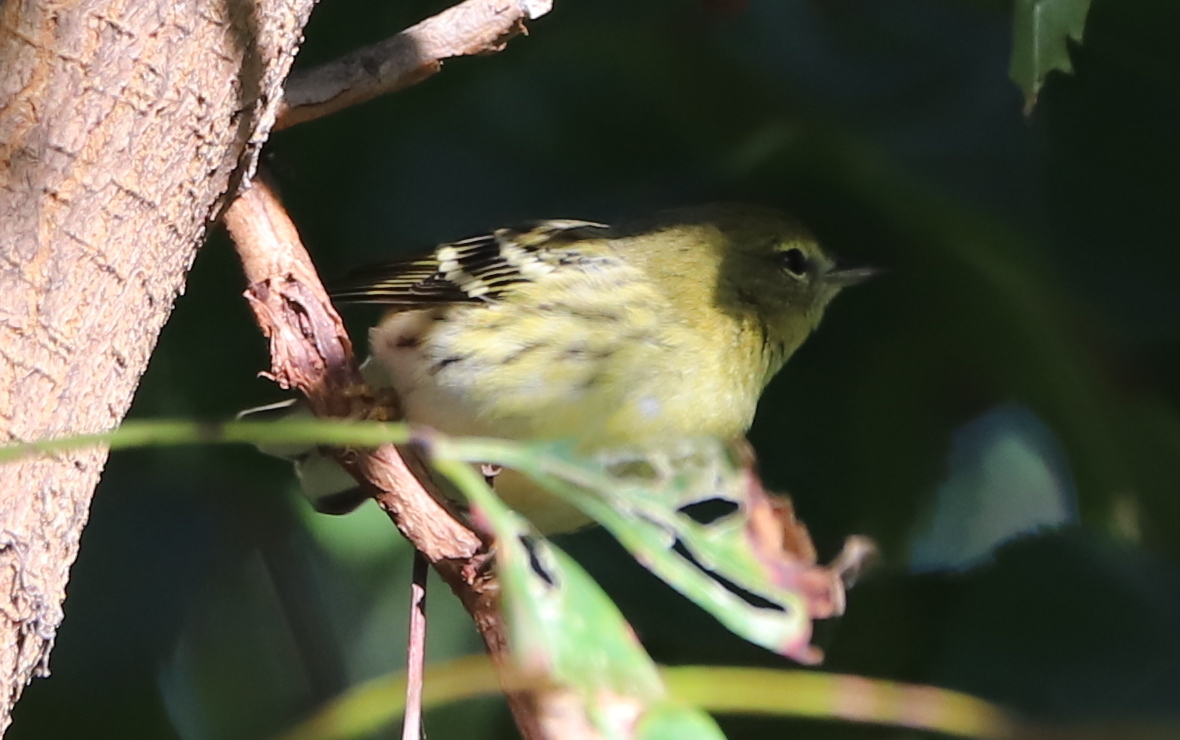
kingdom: Animalia
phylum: Chordata
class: Aves
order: Passeriformes
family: Parulidae
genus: Setophaga
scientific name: Setophaga striata
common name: Blackpoll warbler
